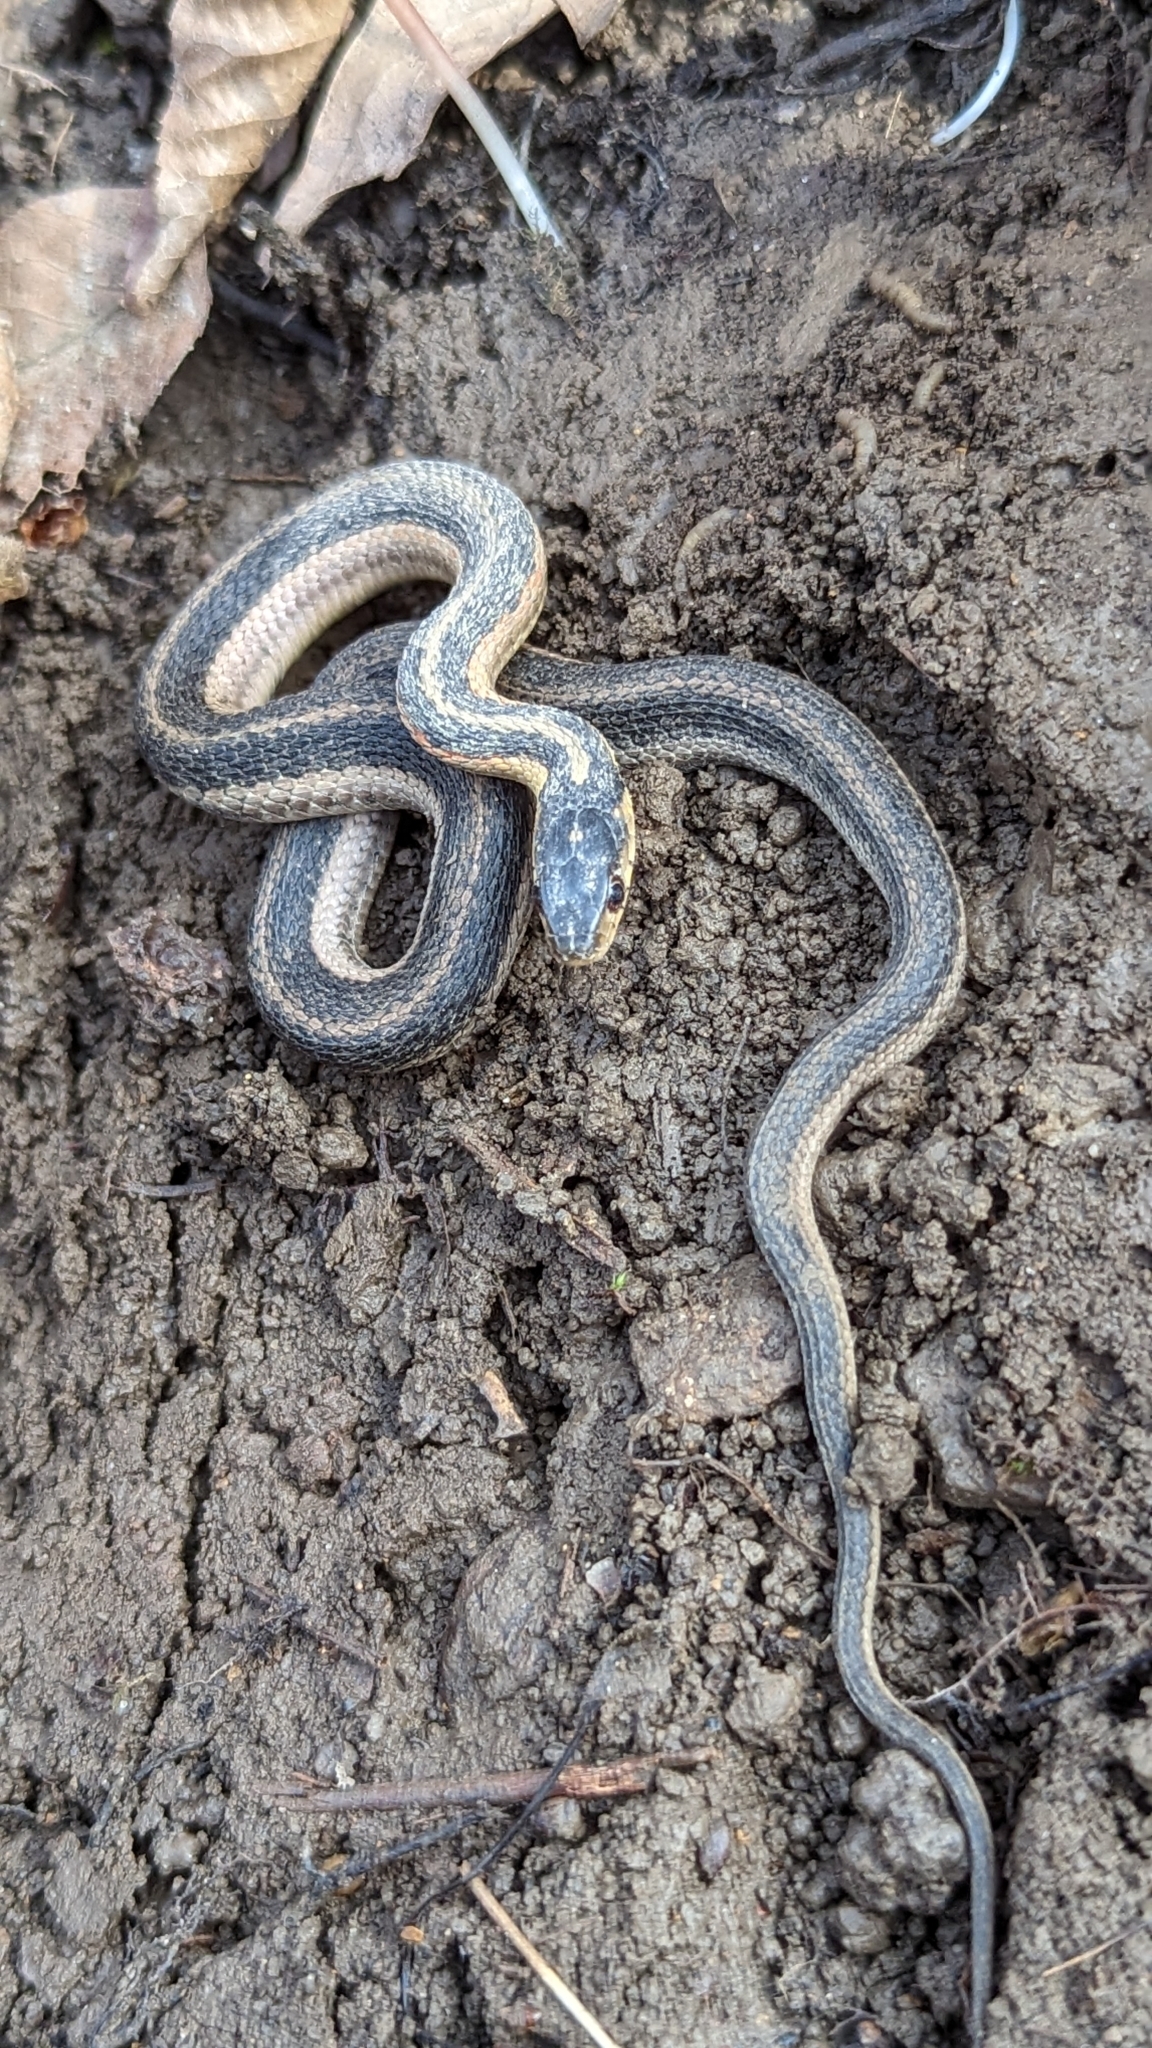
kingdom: Animalia
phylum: Chordata
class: Squamata
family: Colubridae
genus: Thamnophis
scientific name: Thamnophis sirtalis
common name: Common garter snake
